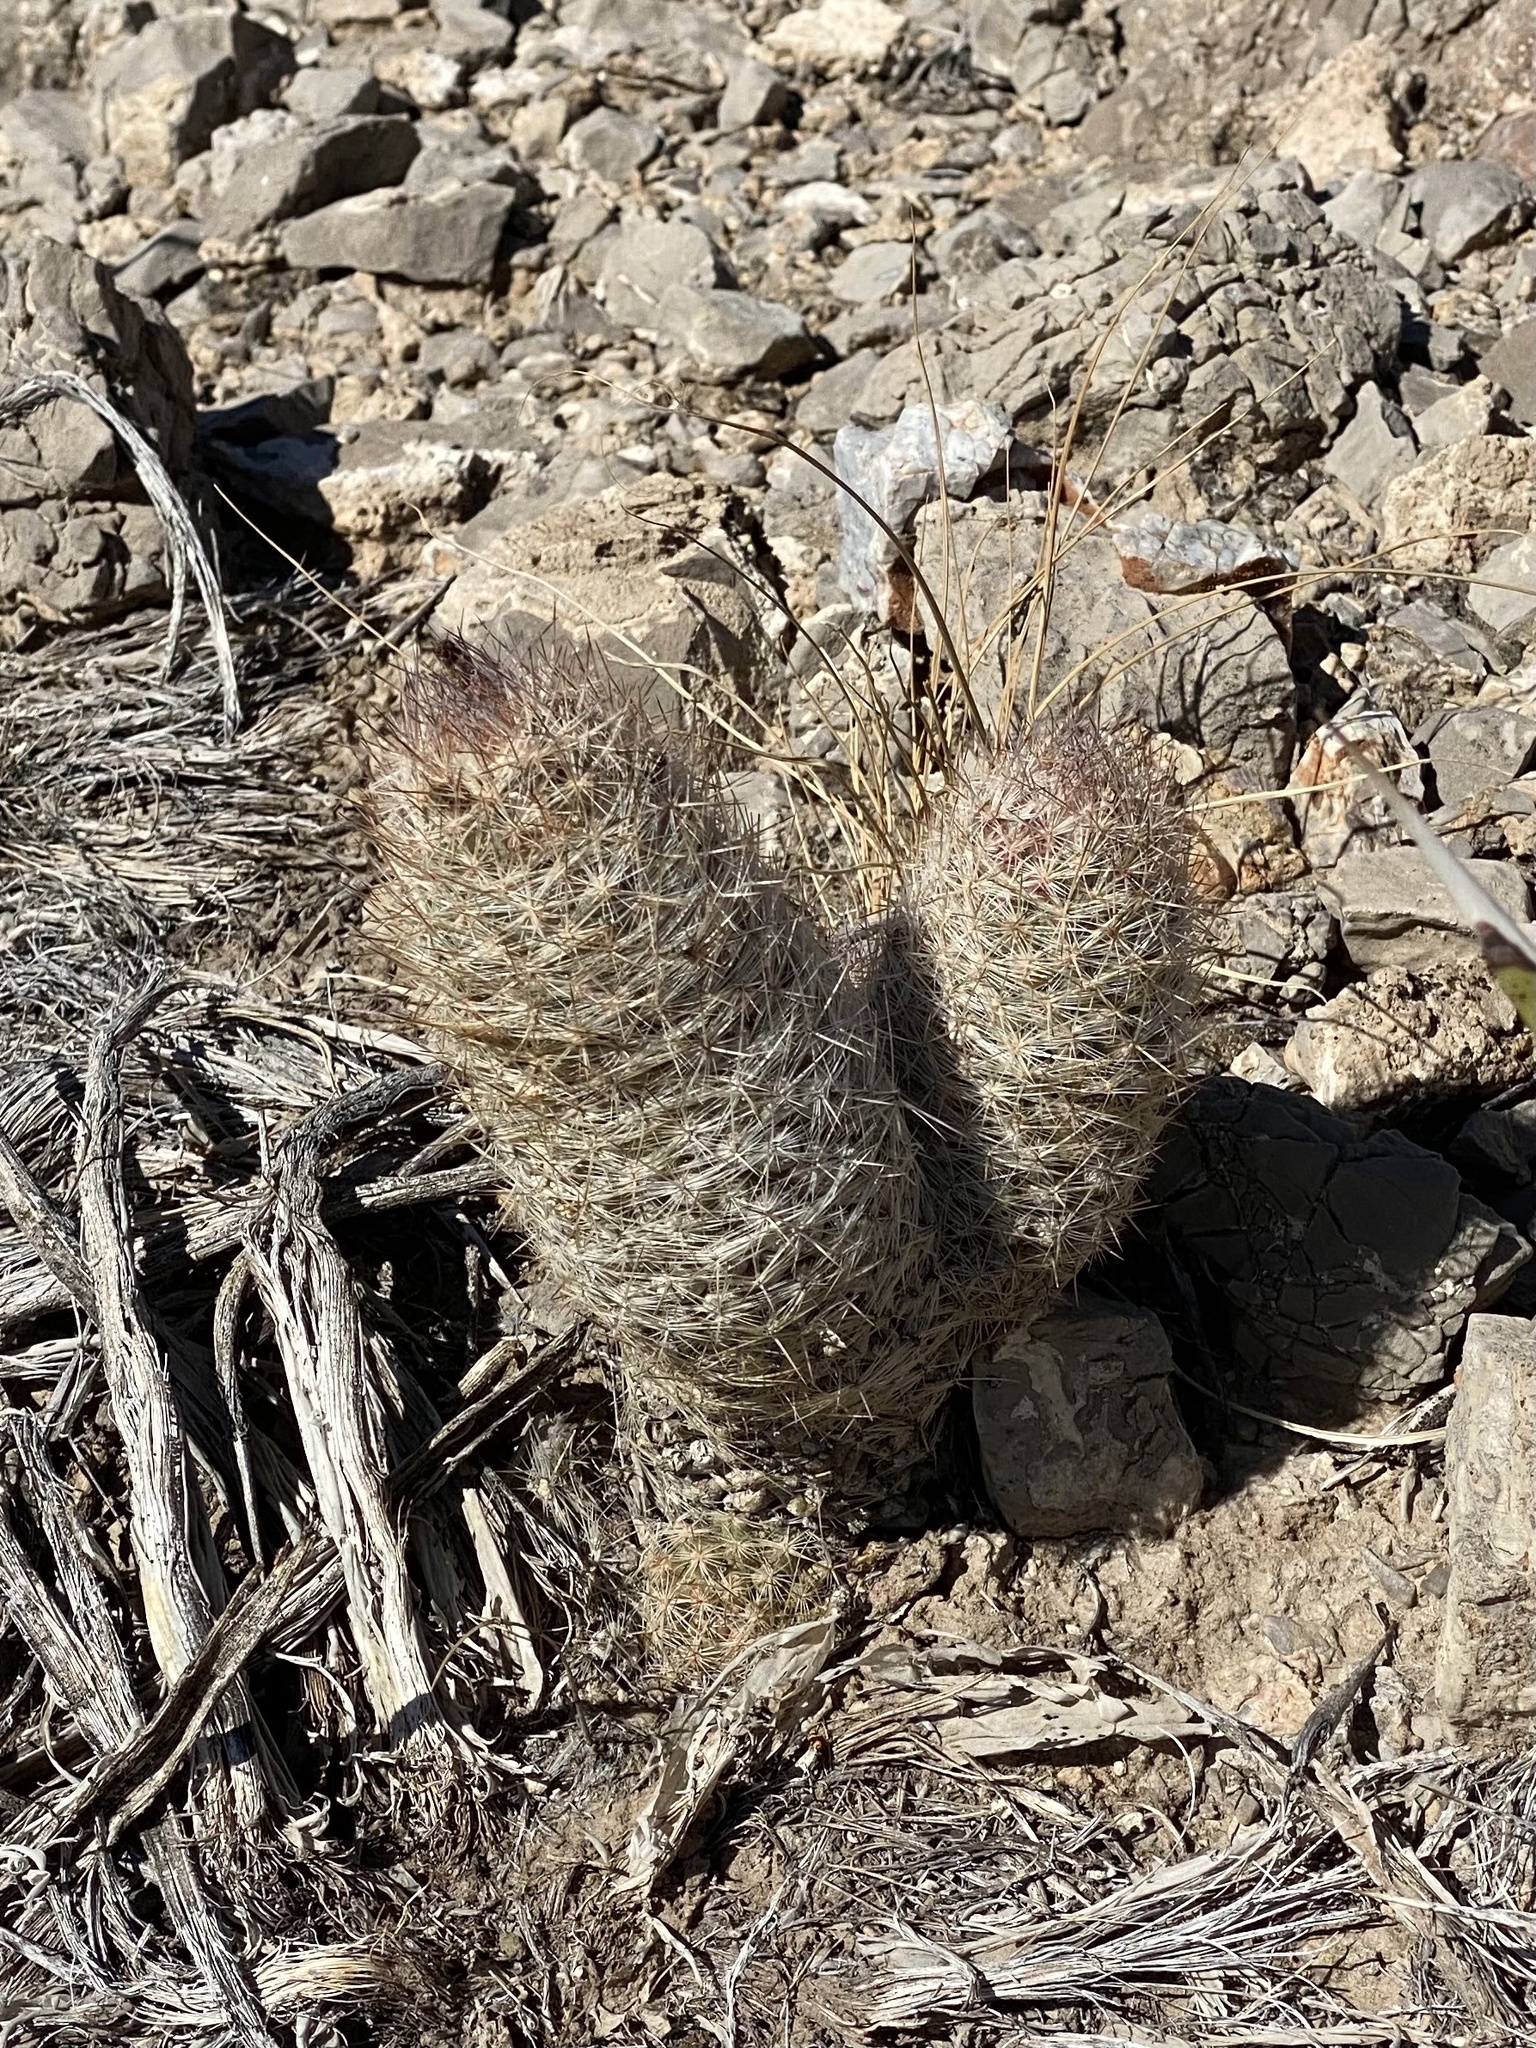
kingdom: Plantae
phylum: Tracheophyta
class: Magnoliopsida
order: Caryophyllales
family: Cactaceae
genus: Pelecyphora
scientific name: Pelecyphora tuberculosa
